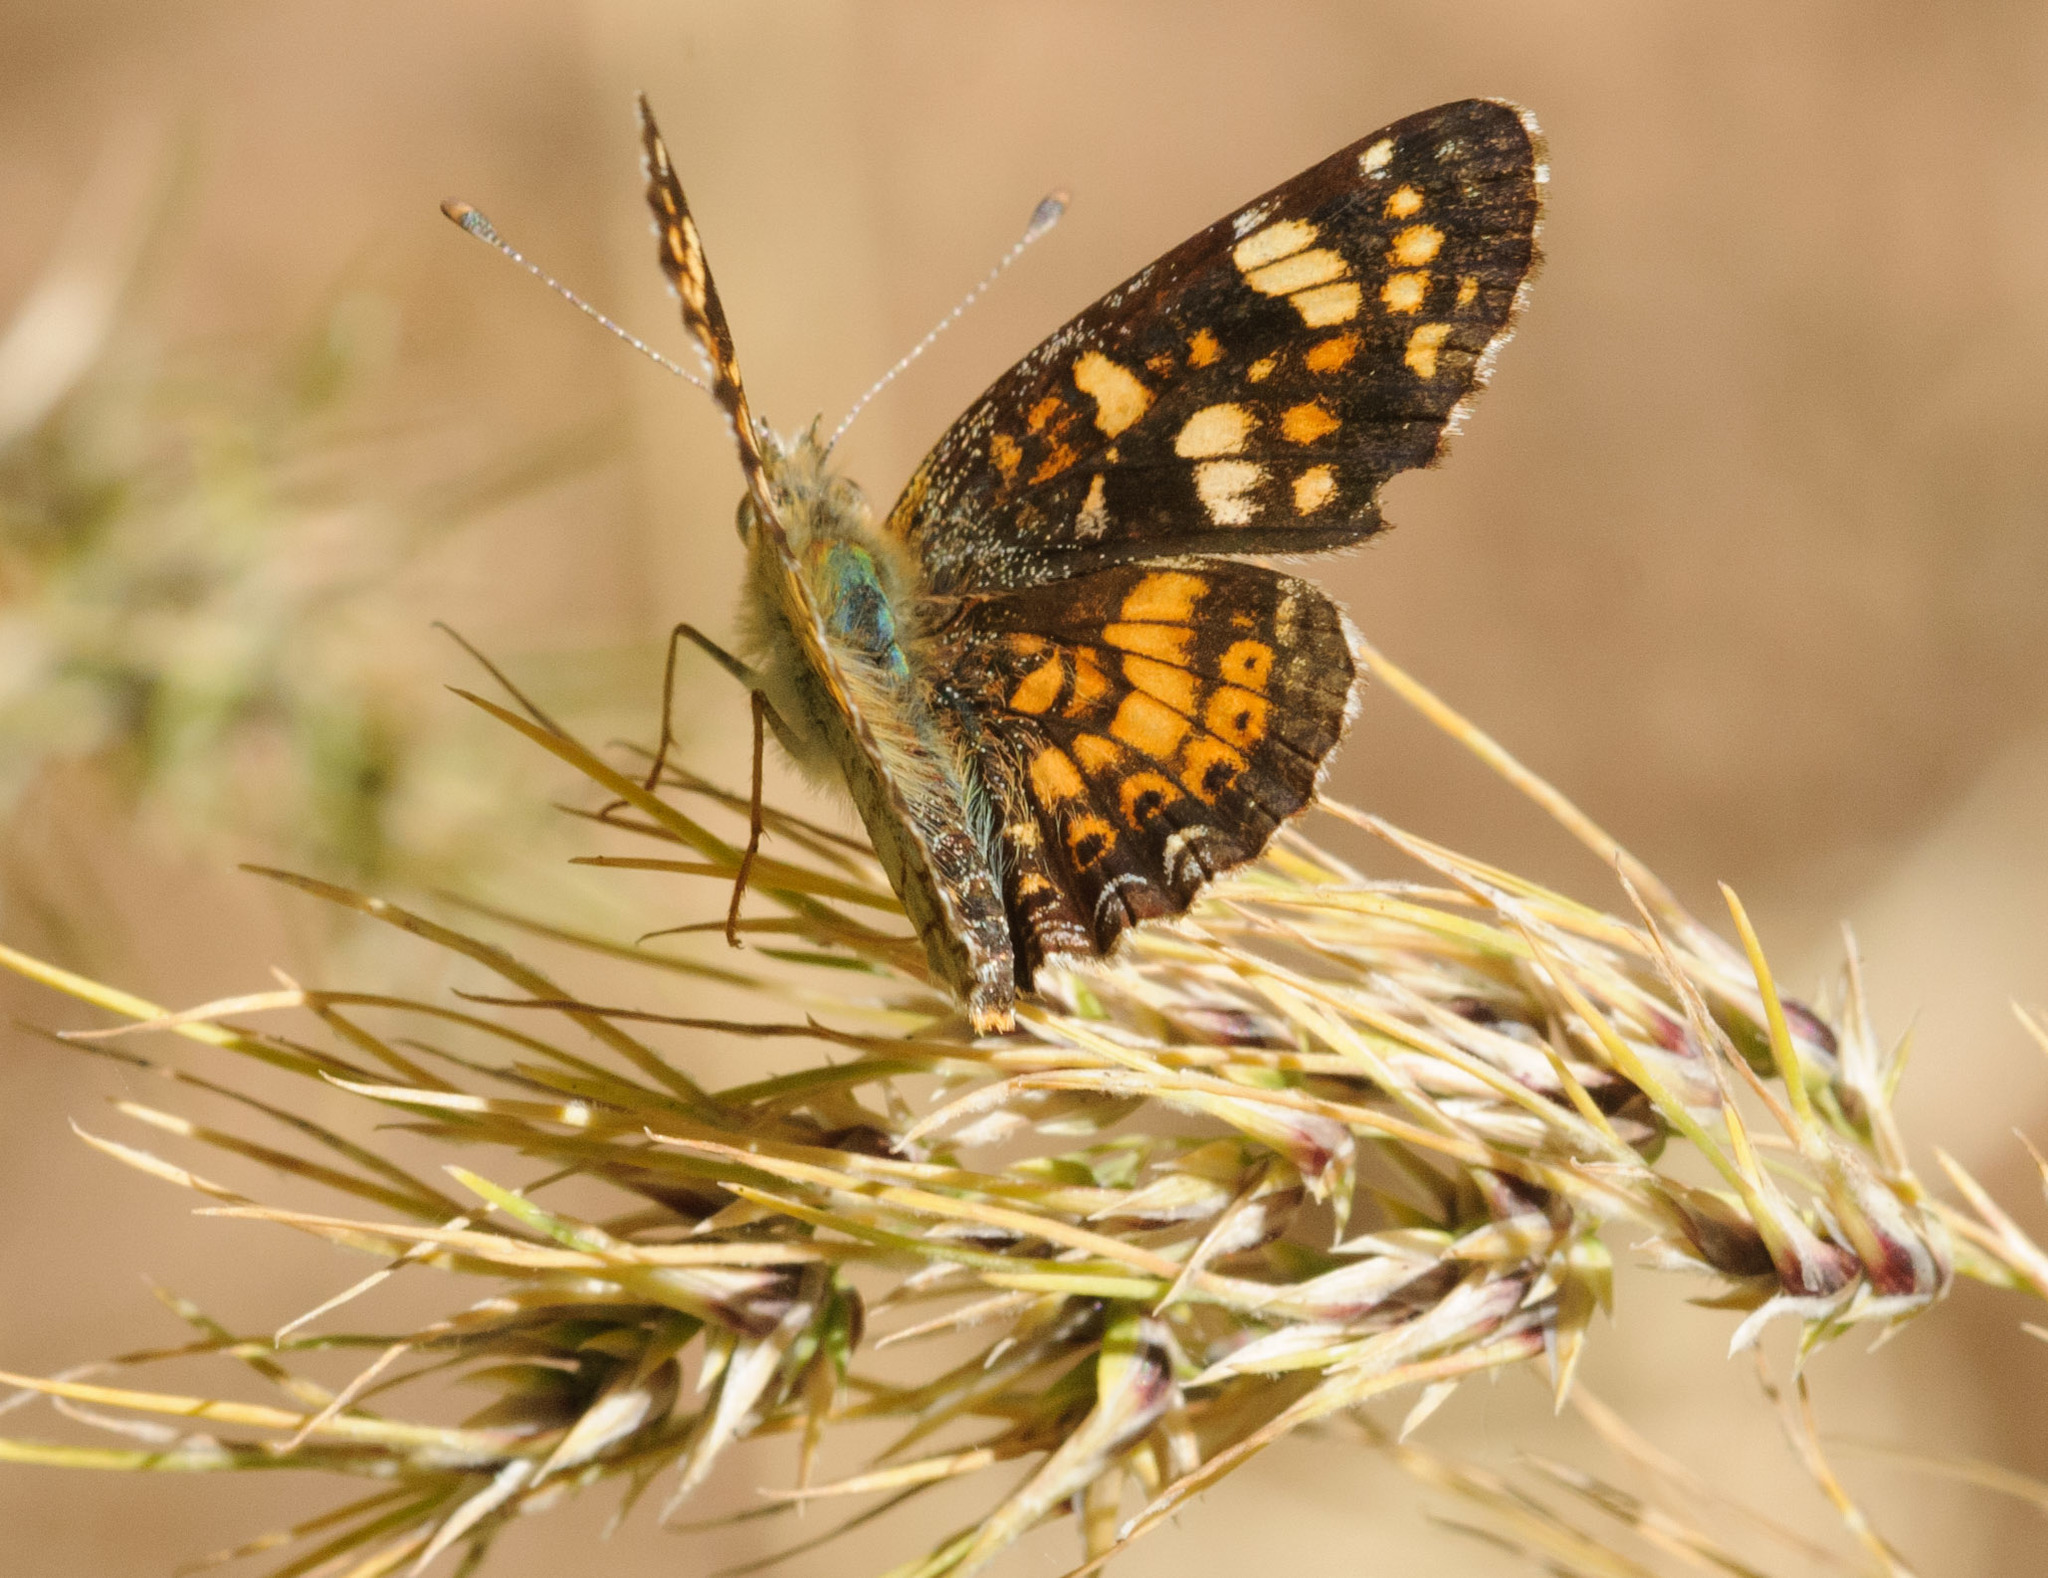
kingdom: Animalia
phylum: Arthropoda
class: Insecta
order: Lepidoptera
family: Nymphalidae
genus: Phyciodes
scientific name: Phyciodes tharos
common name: Pearl crescent
